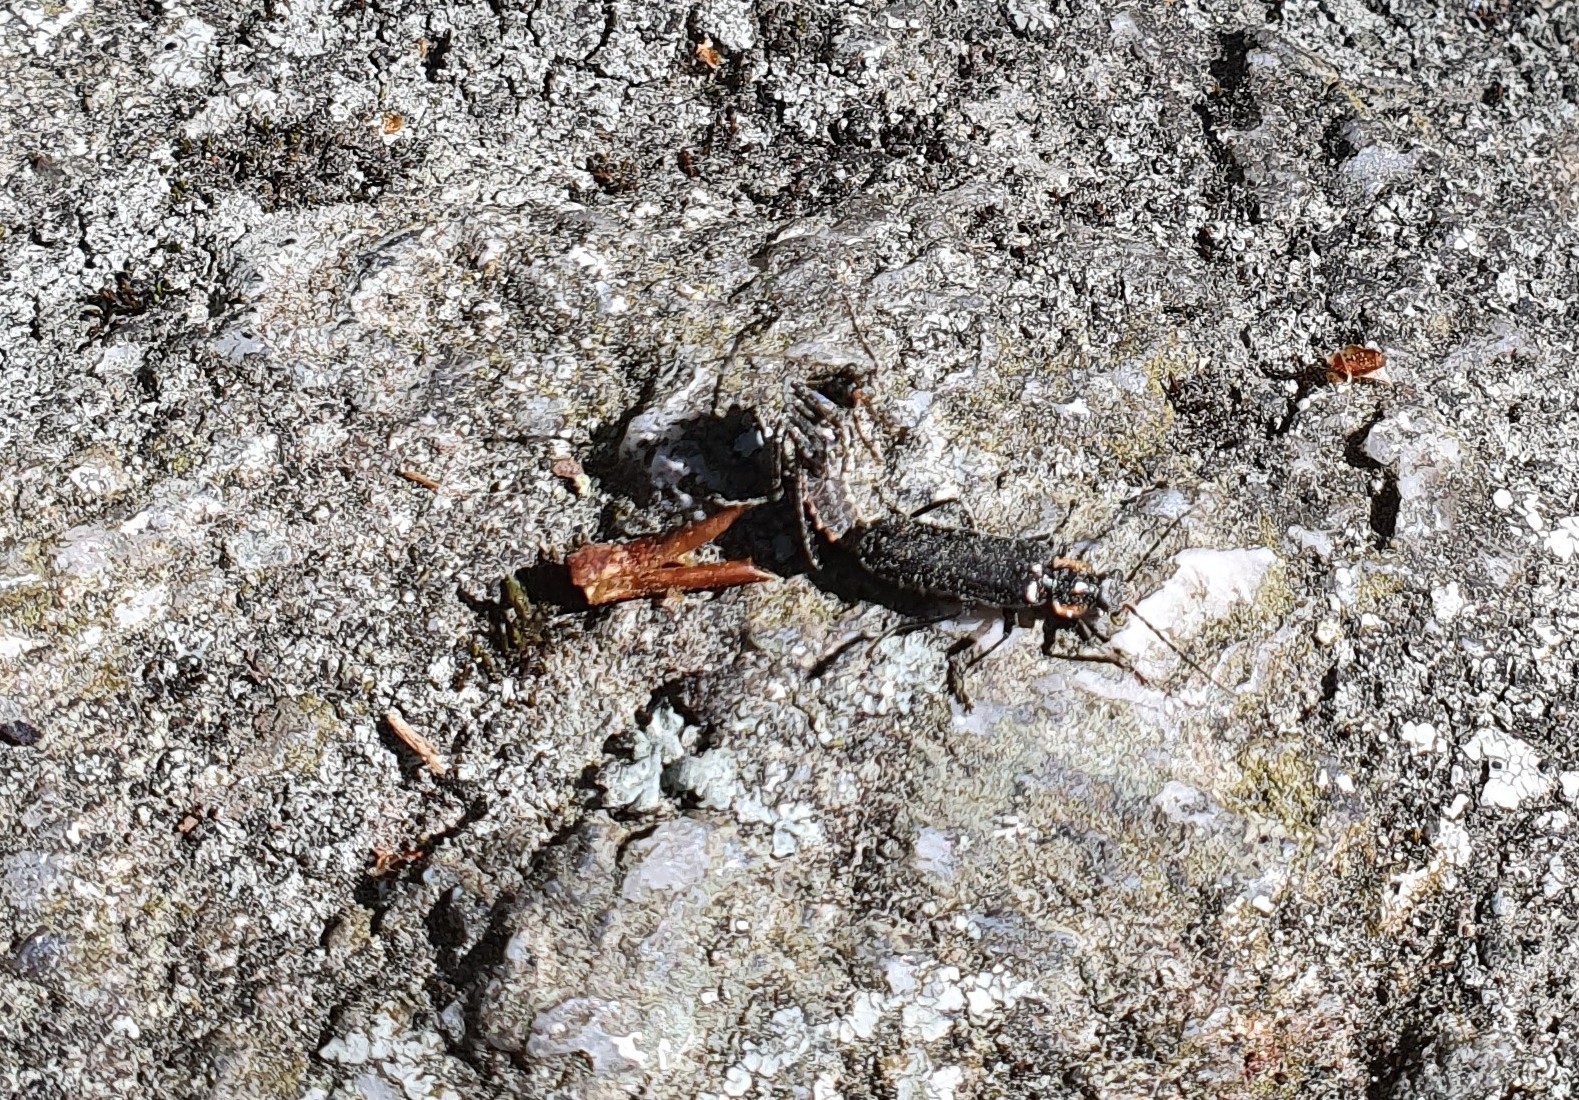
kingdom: Animalia
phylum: Arthropoda
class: Insecta
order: Coleoptera
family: Cantharidae
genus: Cantharis
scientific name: Cantharis obscura
